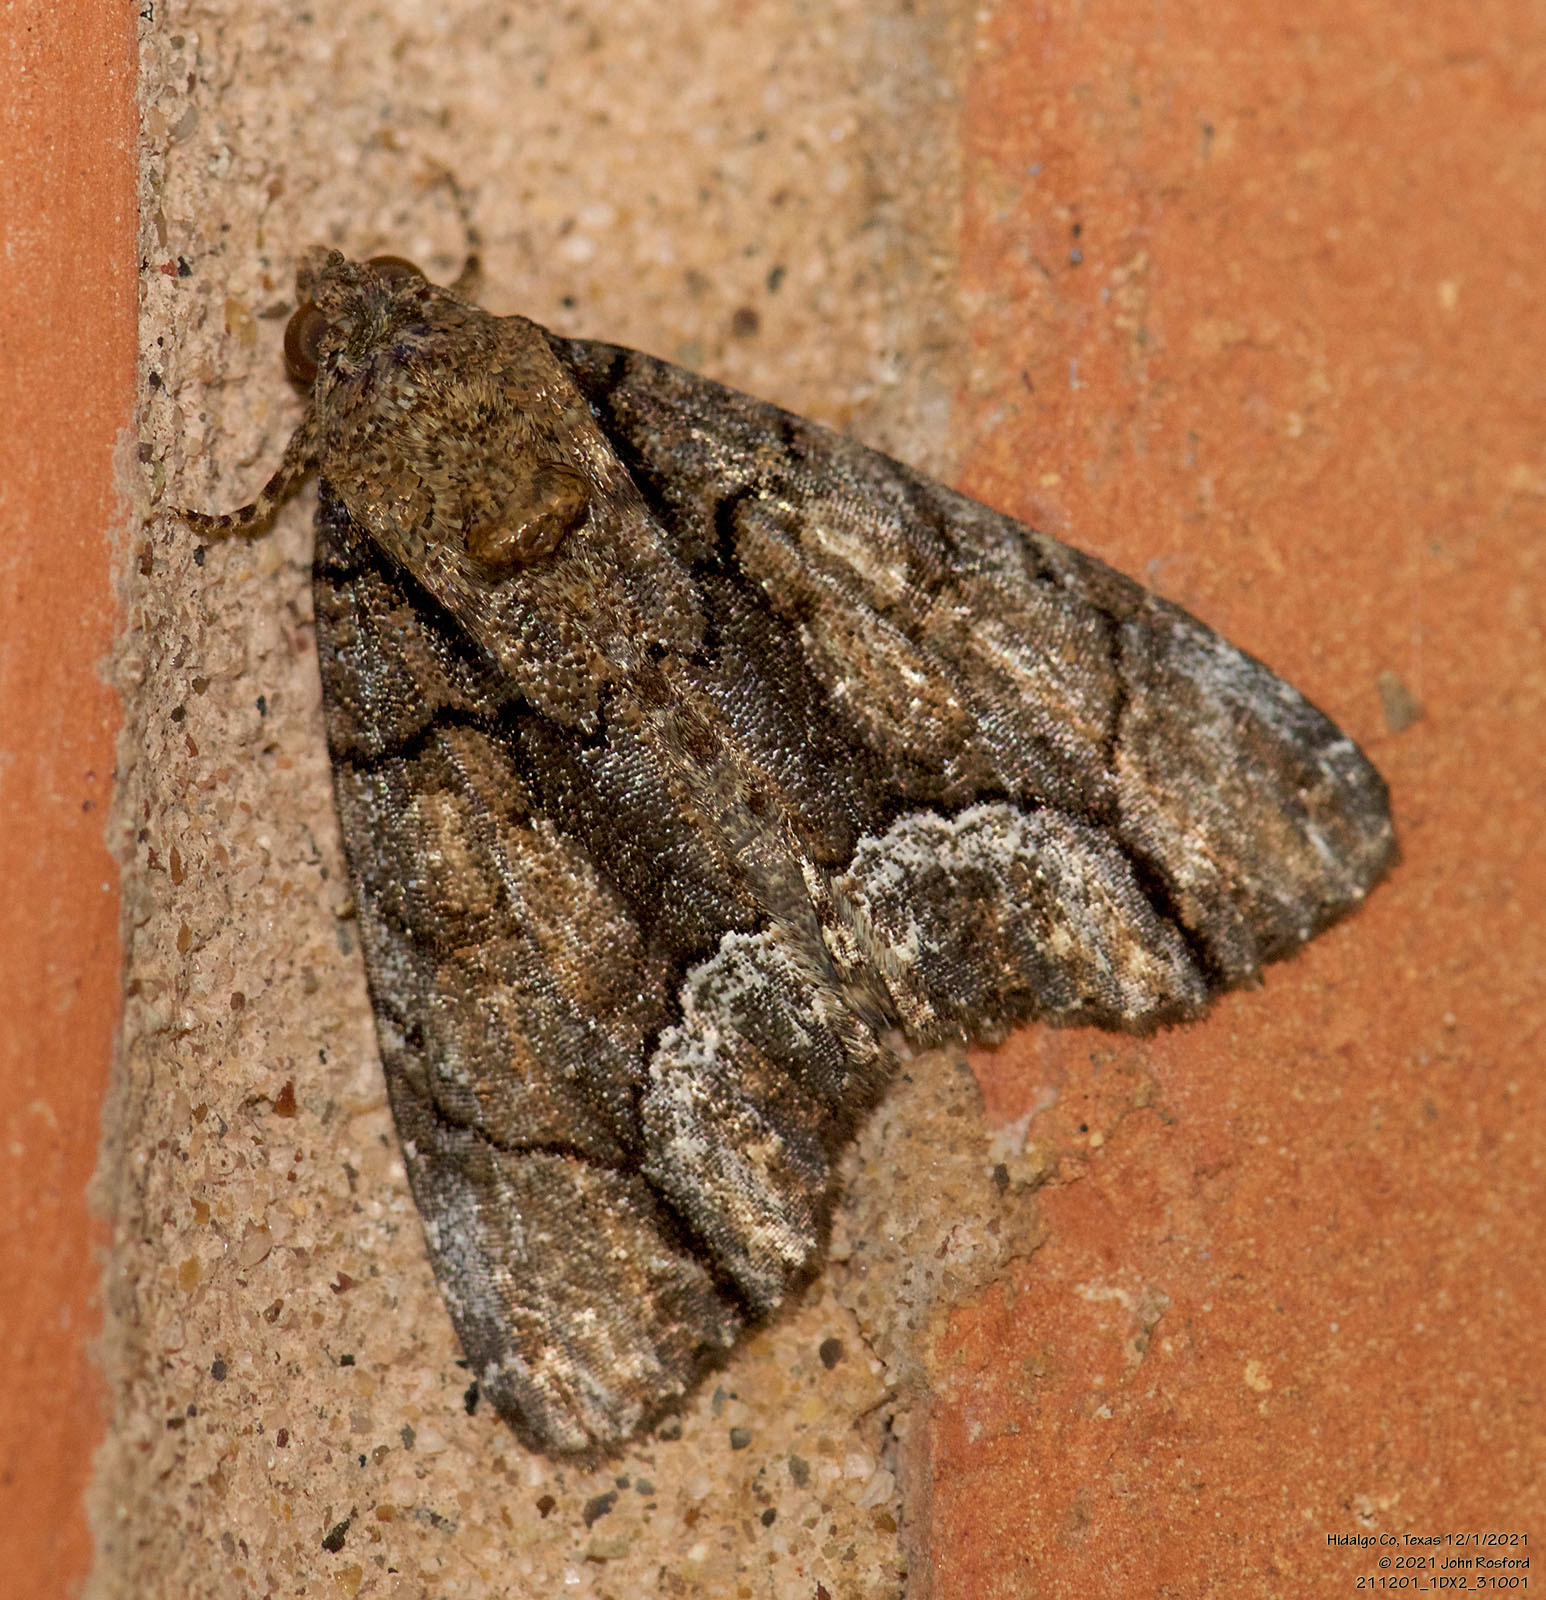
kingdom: Animalia
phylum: Arthropoda
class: Insecta
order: Lepidoptera
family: Noctuidae
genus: Cropia
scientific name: Cropia connecta
